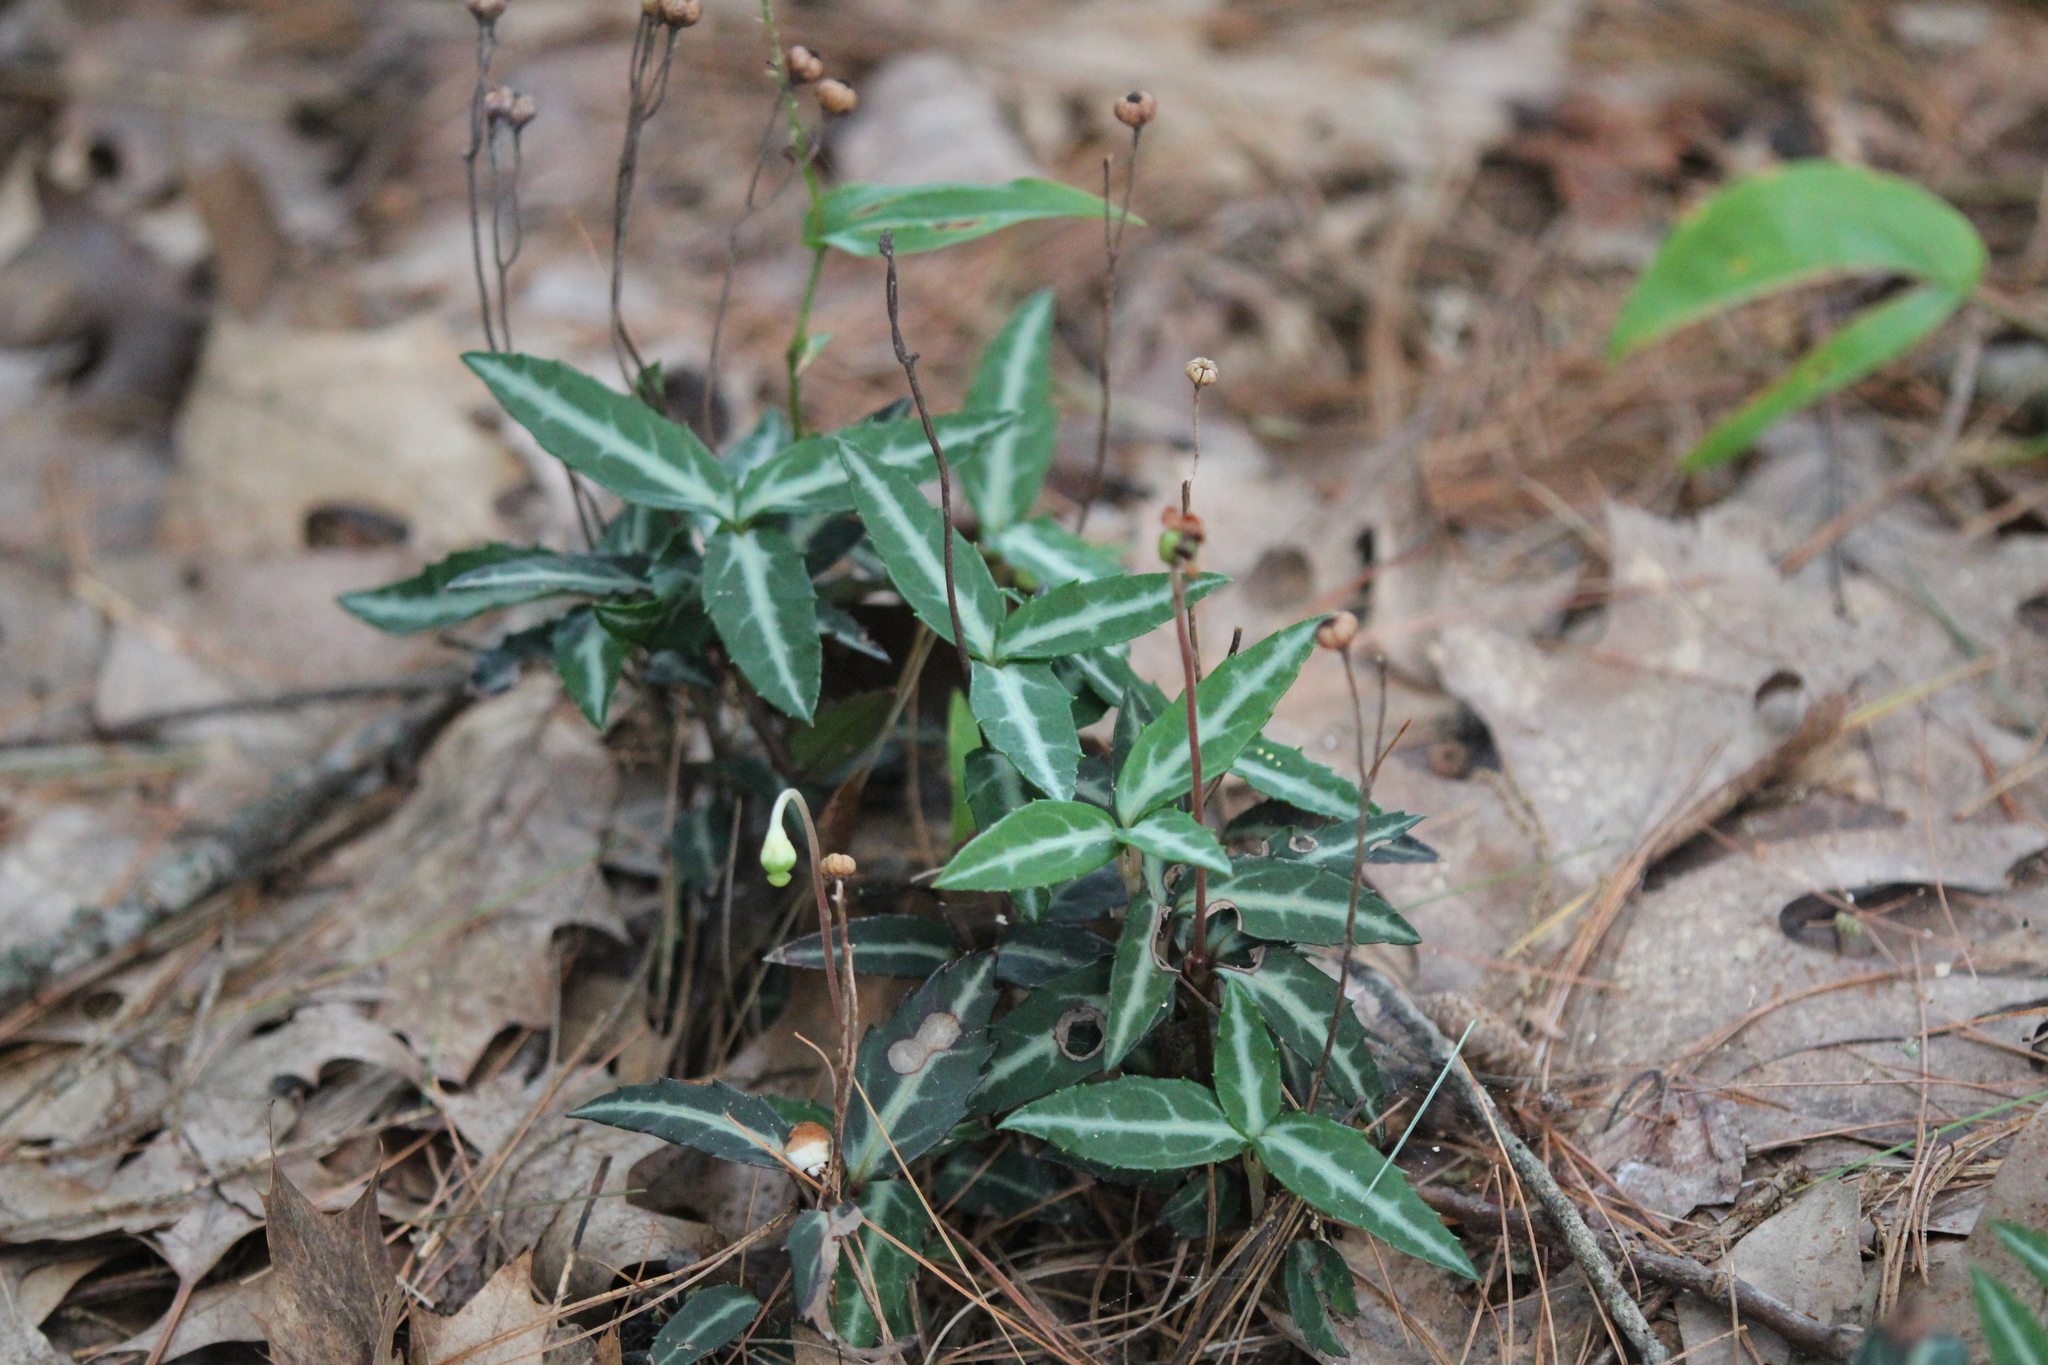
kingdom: Plantae
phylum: Tracheophyta
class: Magnoliopsida
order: Ericales
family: Ericaceae
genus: Chimaphila
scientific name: Chimaphila maculata
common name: Spotted pipsissewa
